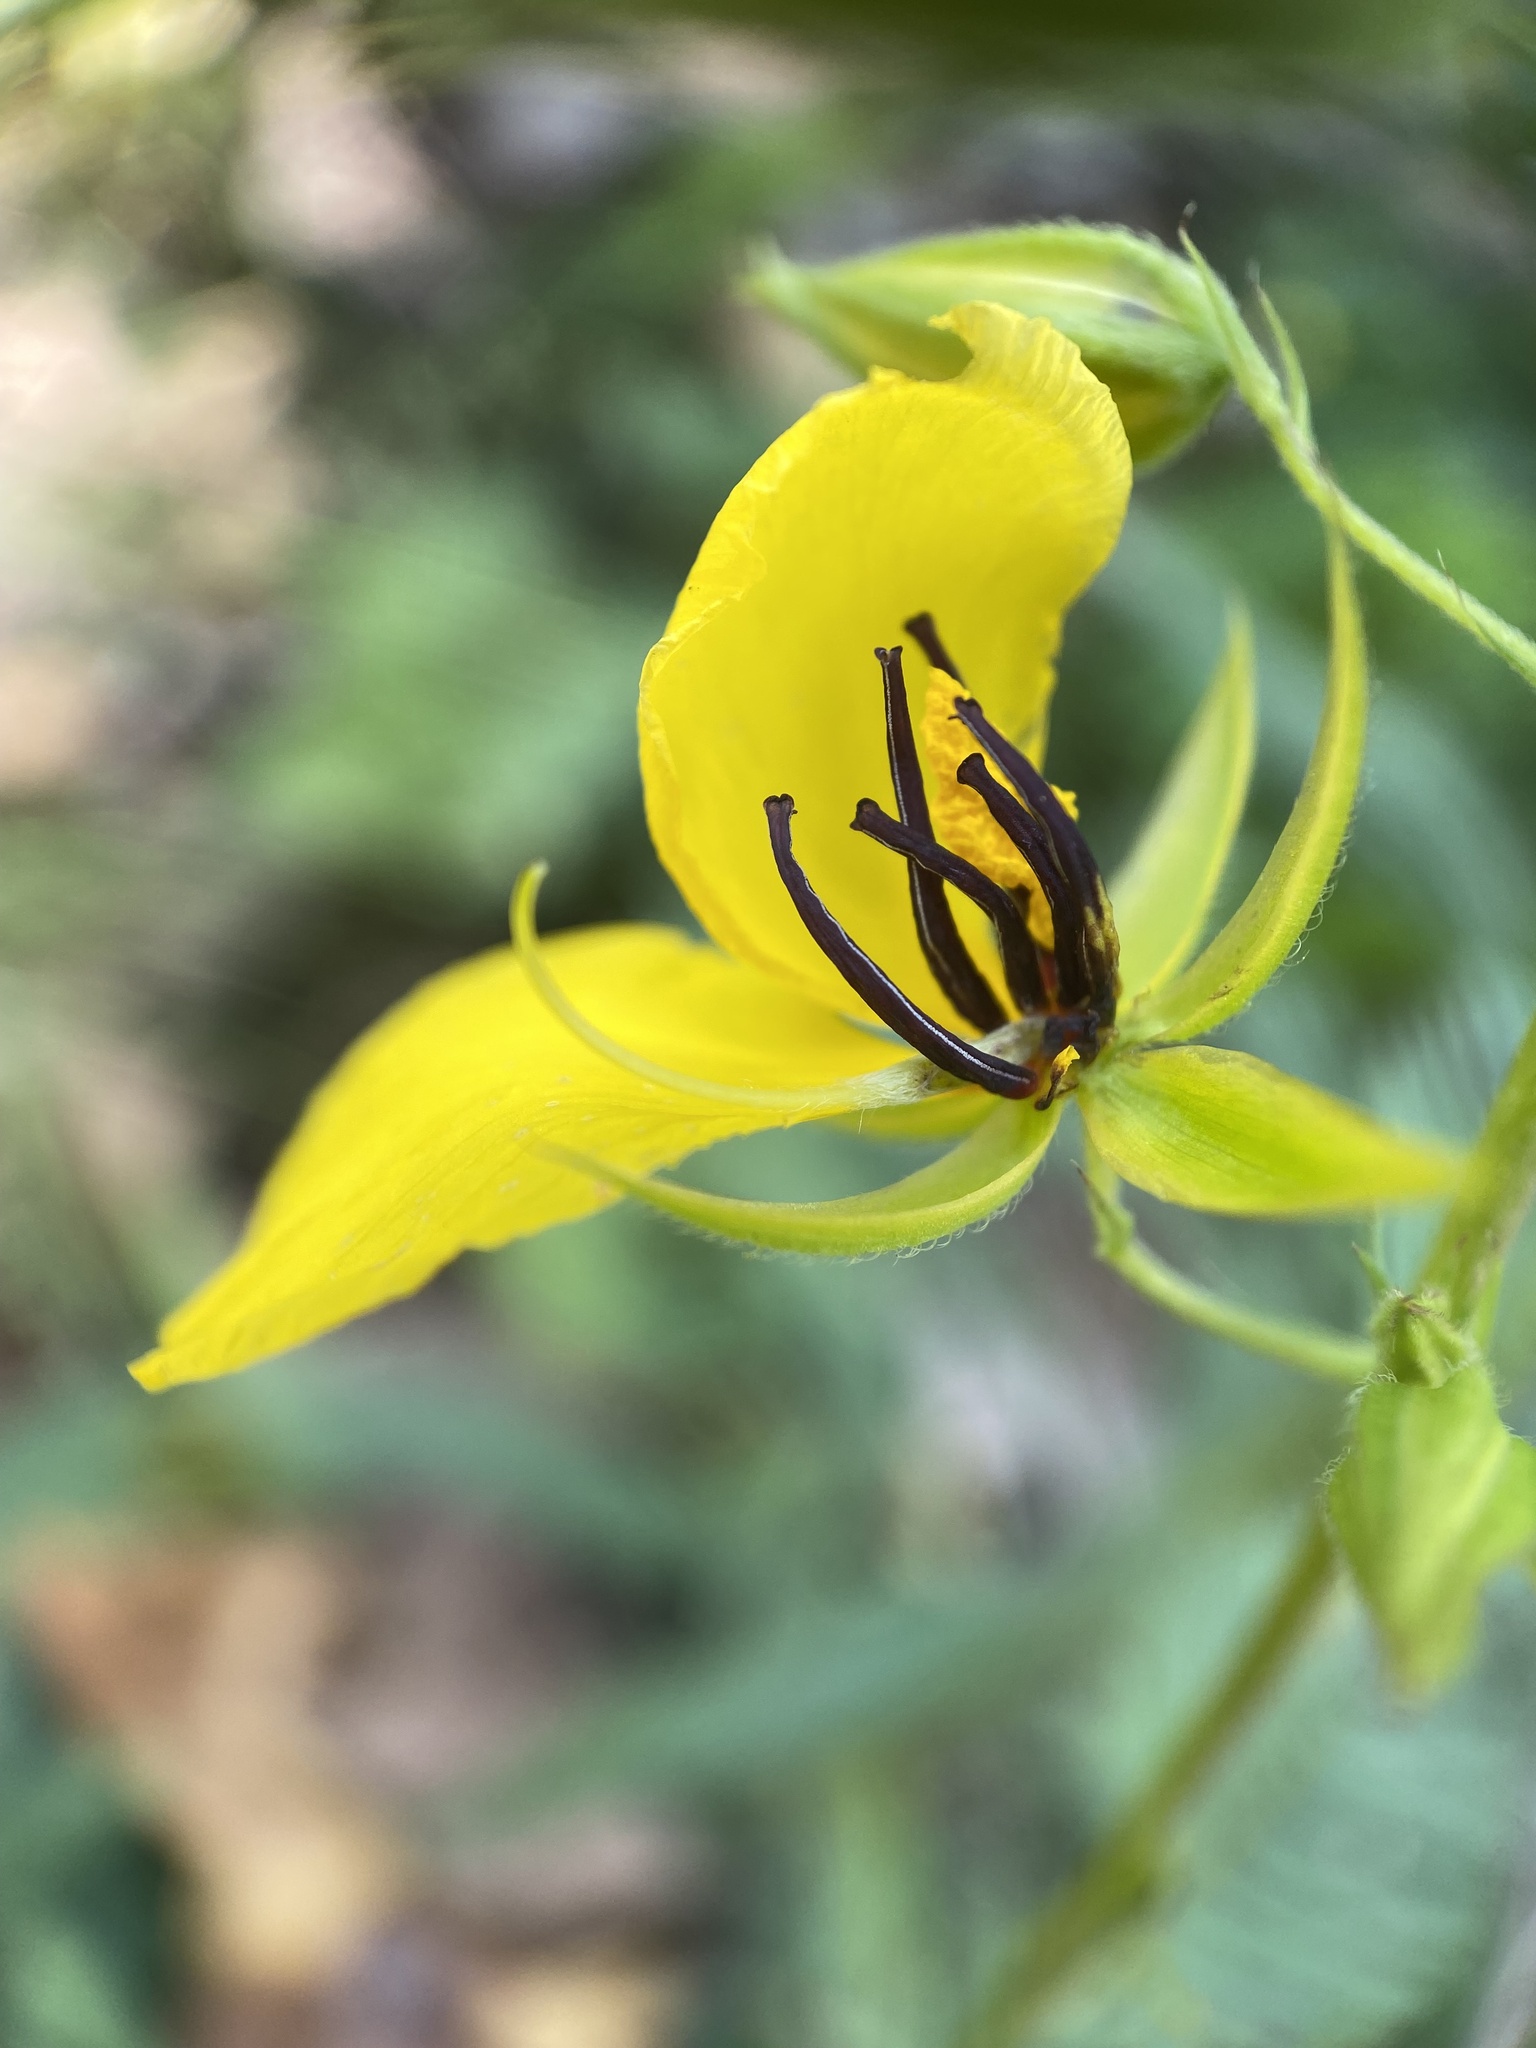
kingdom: Plantae
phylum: Tracheophyta
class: Magnoliopsida
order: Fabales
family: Fabaceae
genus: Chamaecrista
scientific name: Chamaecrista fasciculata
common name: Golden cassia
